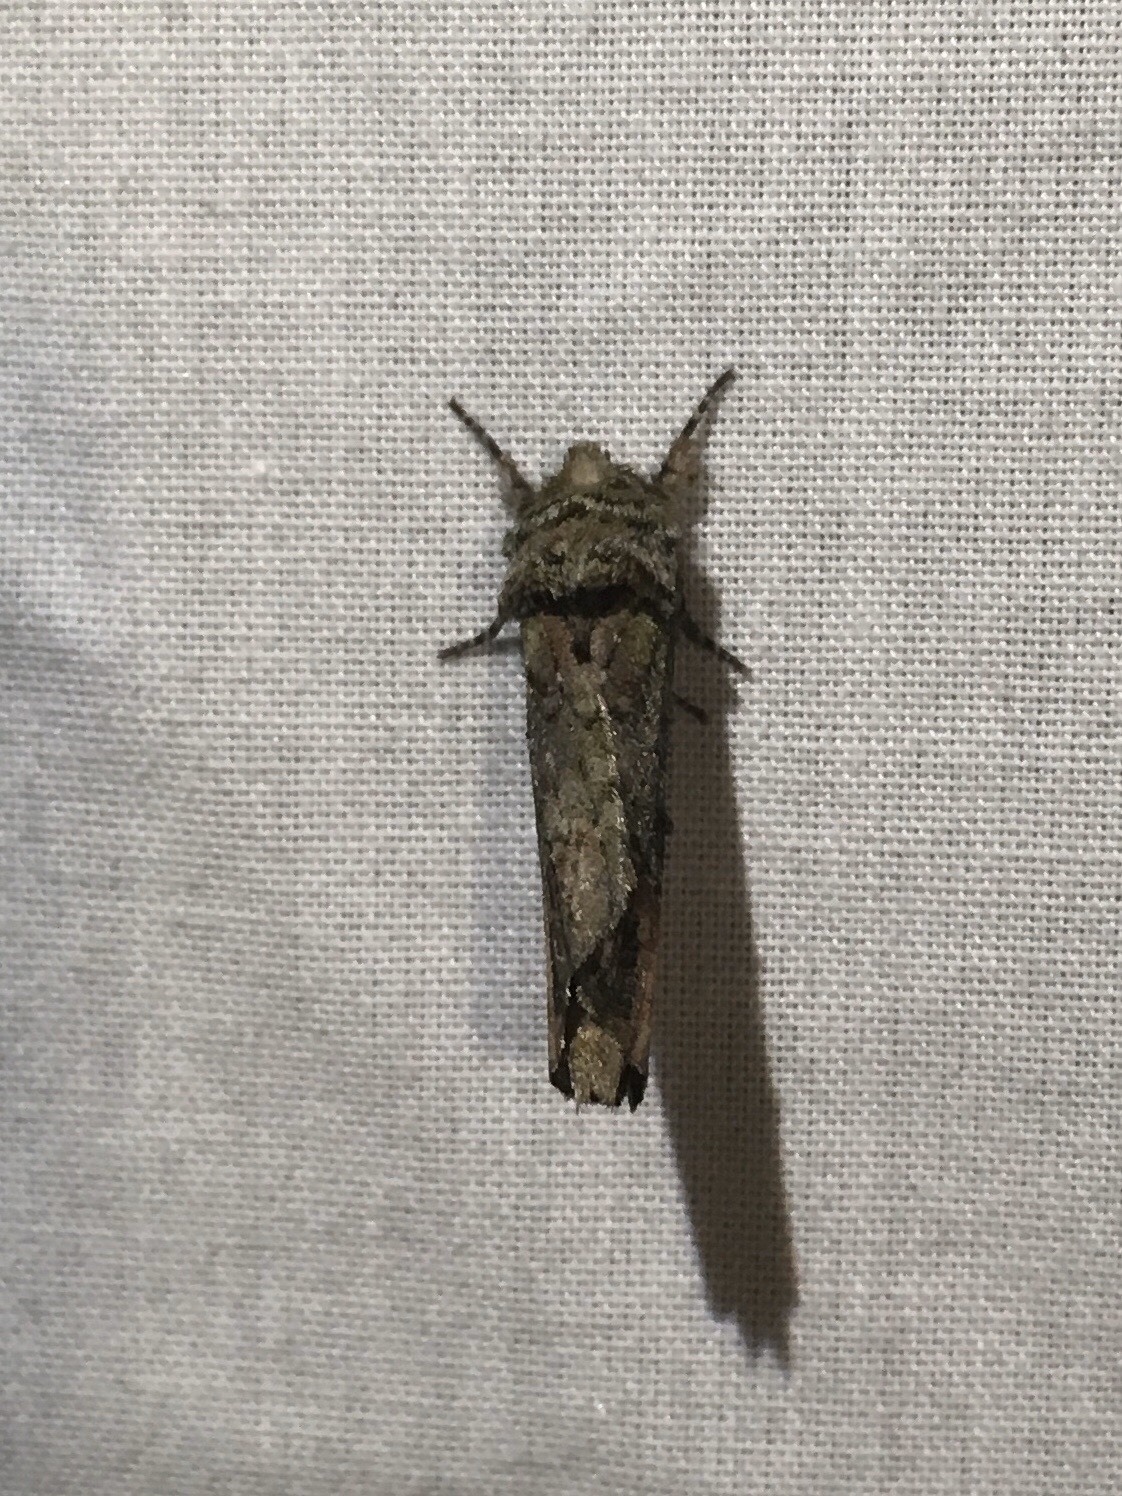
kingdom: Animalia
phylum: Arthropoda
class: Insecta
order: Lepidoptera
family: Notodontidae
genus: Schizura
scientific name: Schizura
